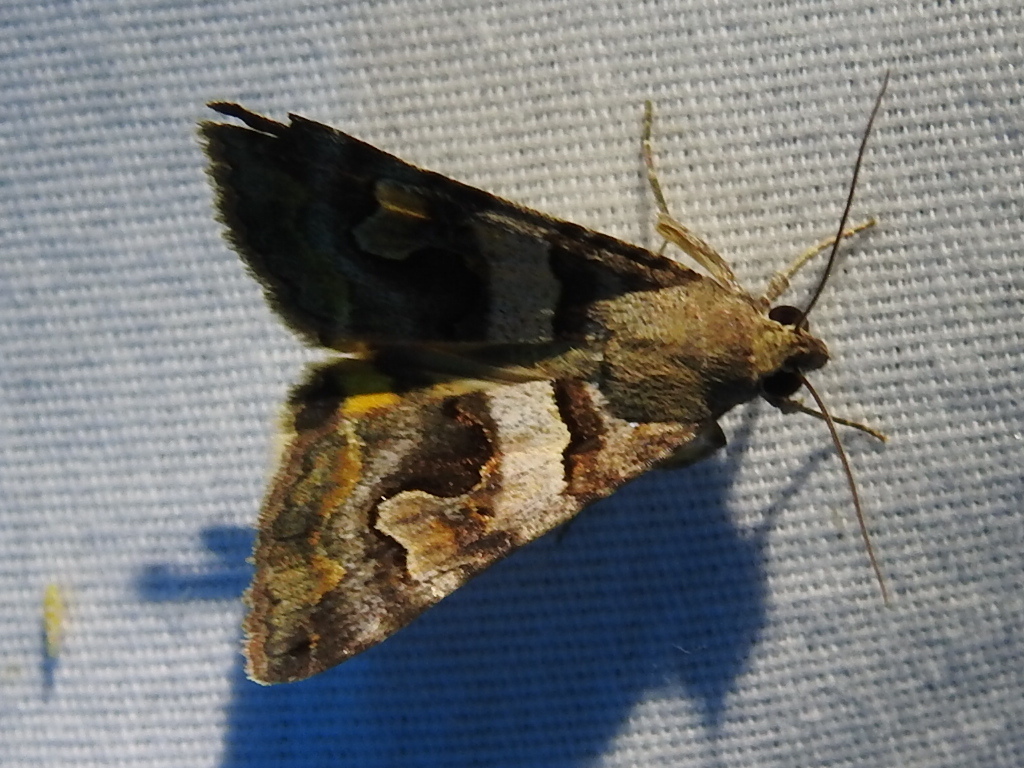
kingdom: Animalia
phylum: Arthropoda
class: Insecta
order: Lepidoptera
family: Erebidae
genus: Bulia
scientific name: Bulia deducta
